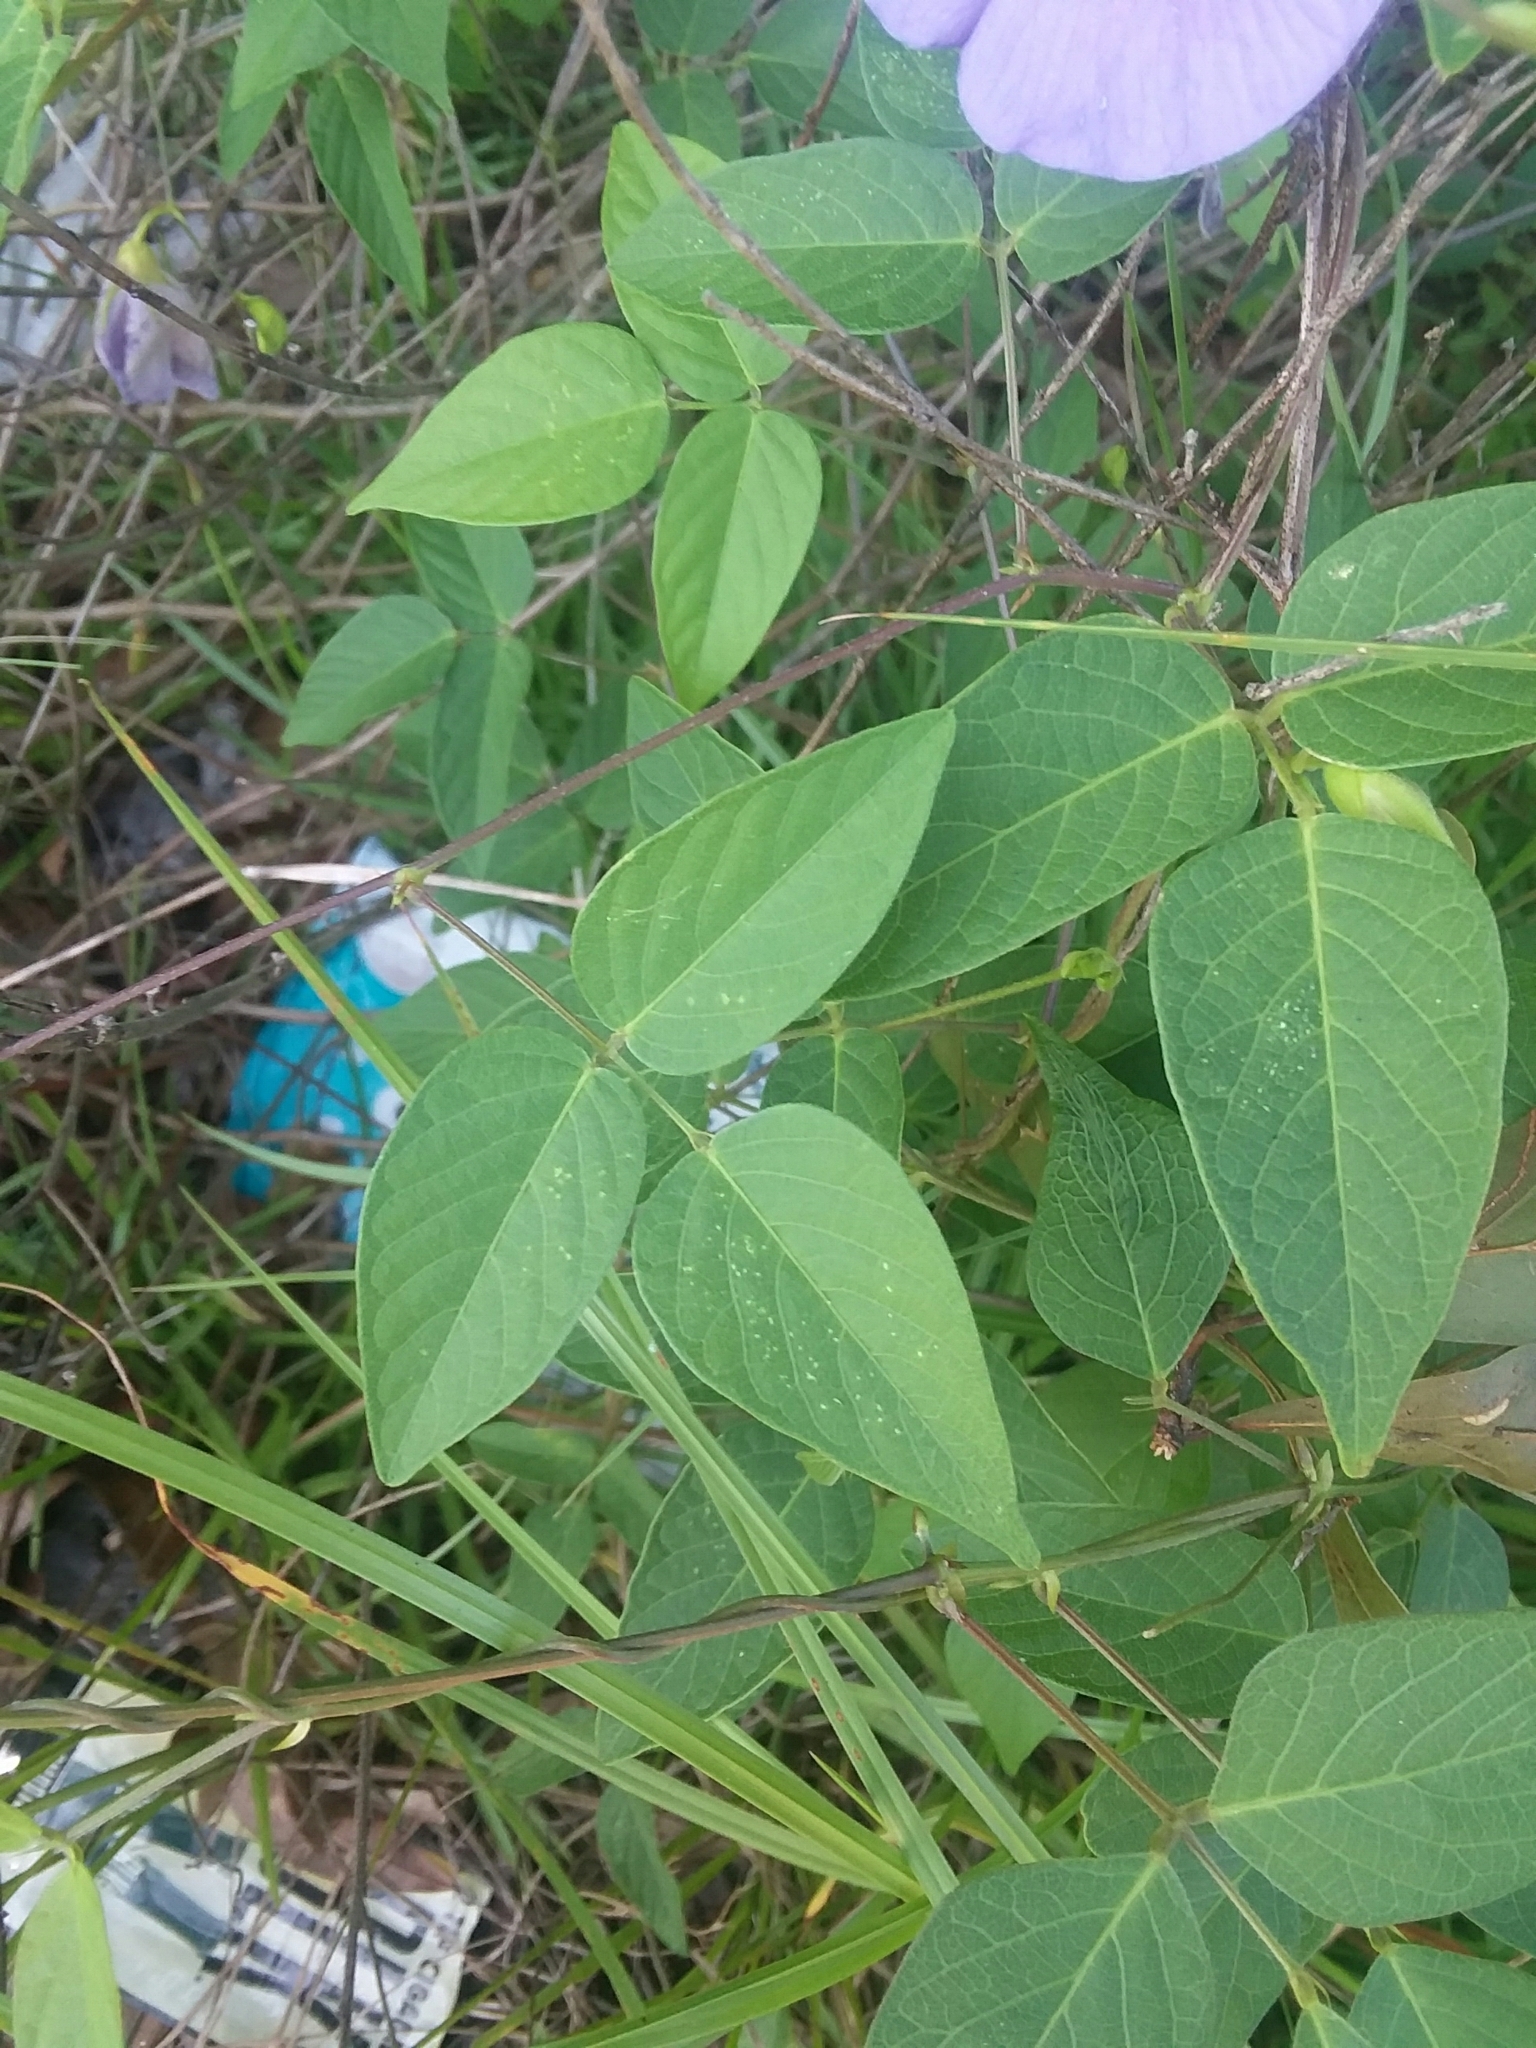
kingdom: Plantae
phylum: Tracheophyta
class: Magnoliopsida
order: Fabales
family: Fabaceae
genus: Centrosema
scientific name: Centrosema virginianum
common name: Butterfly-pea
